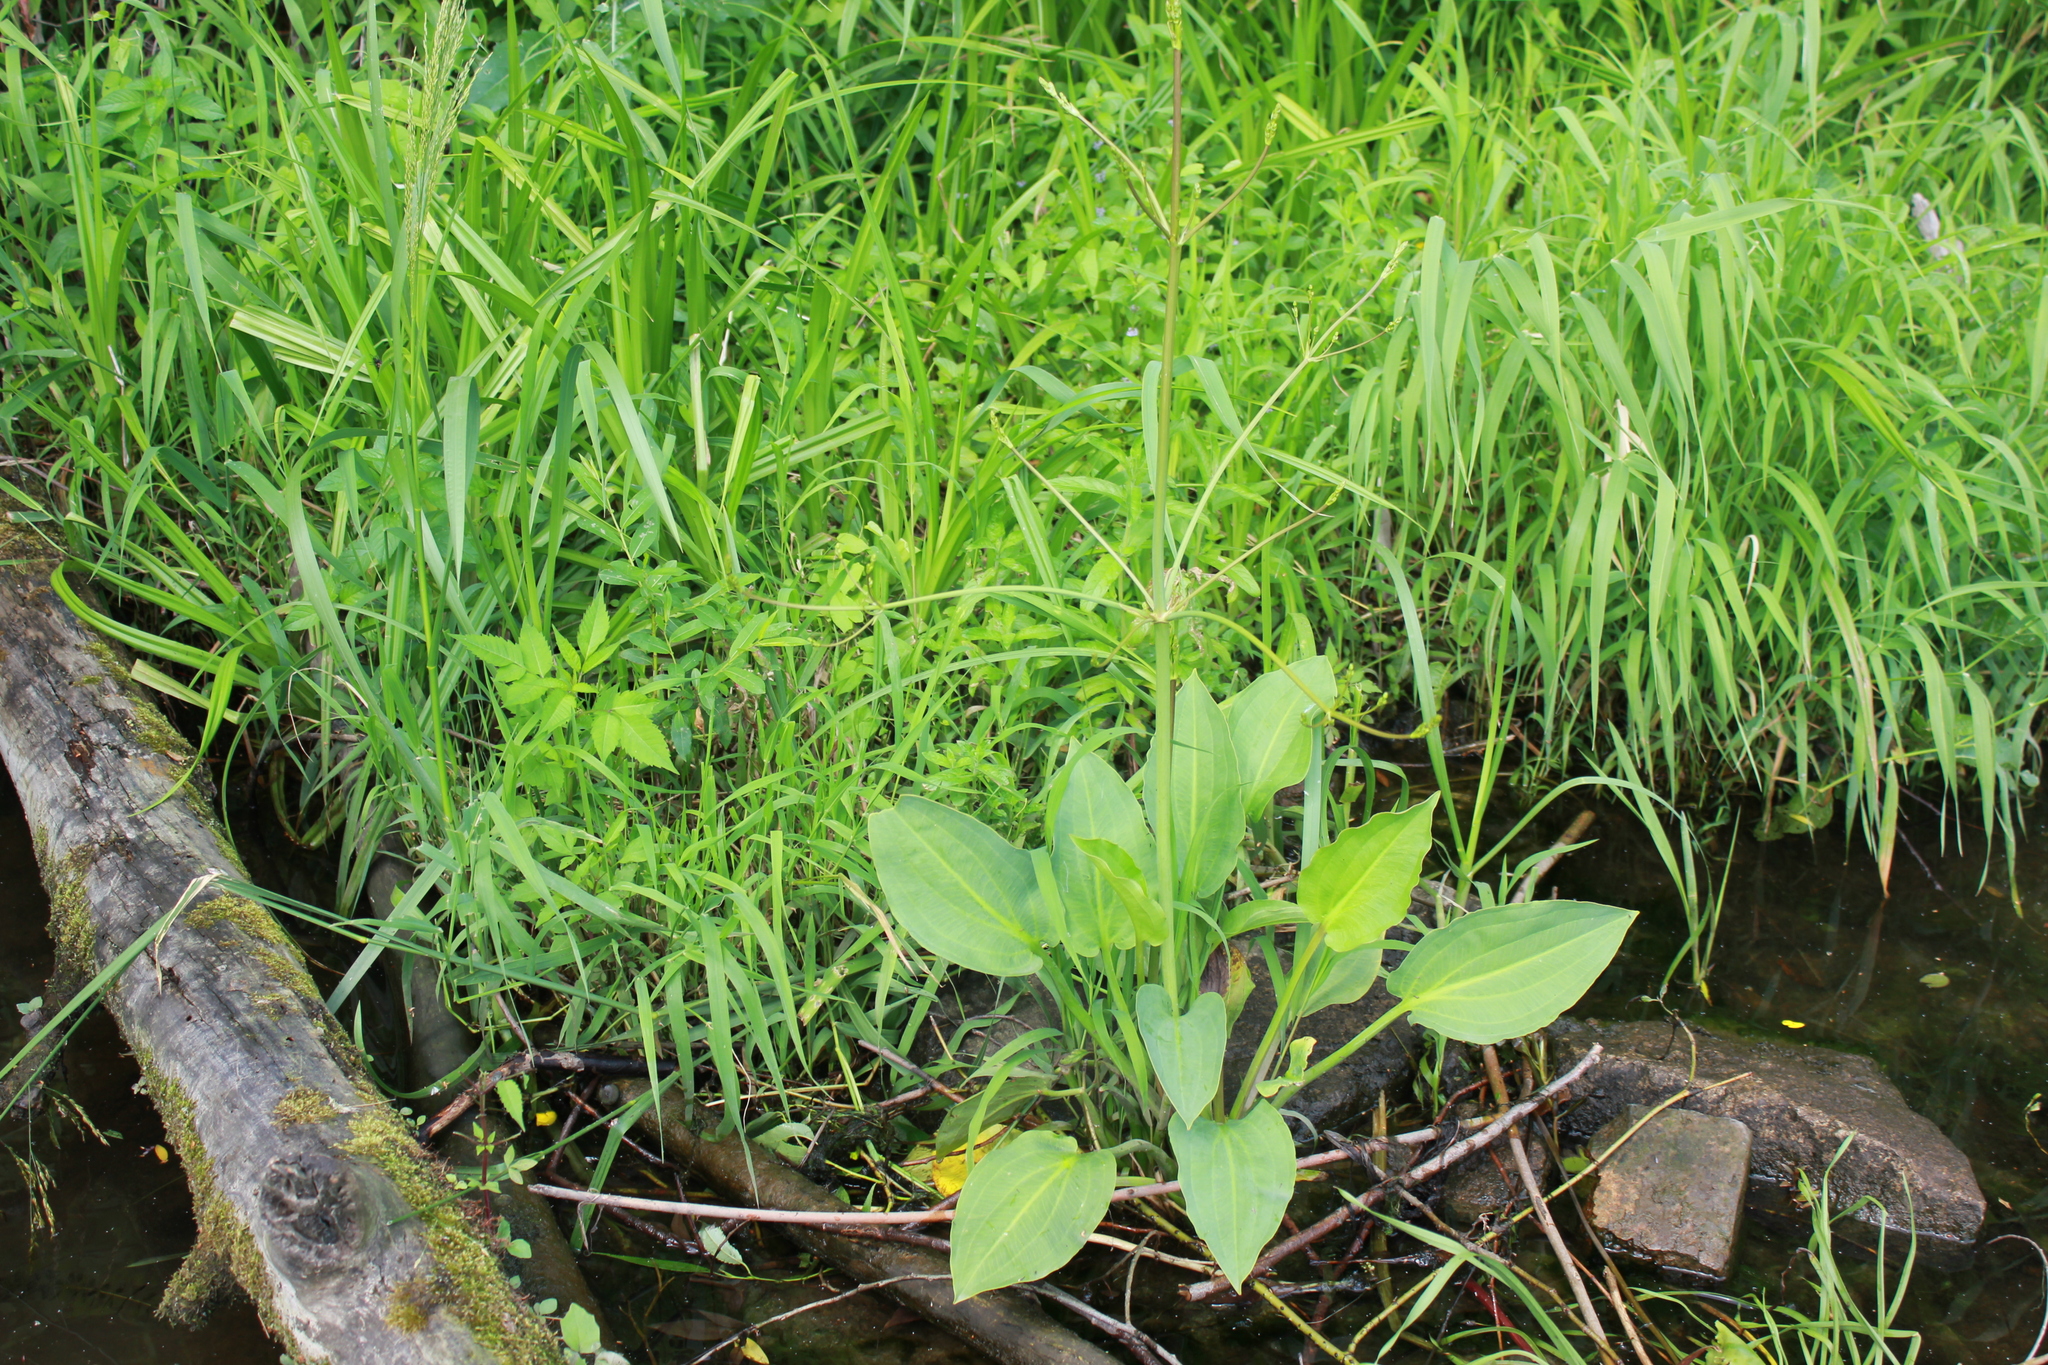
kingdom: Plantae
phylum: Tracheophyta
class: Liliopsida
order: Alismatales
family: Alismataceae
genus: Alisma
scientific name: Alisma plantago-aquatica
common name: Water-plantain
